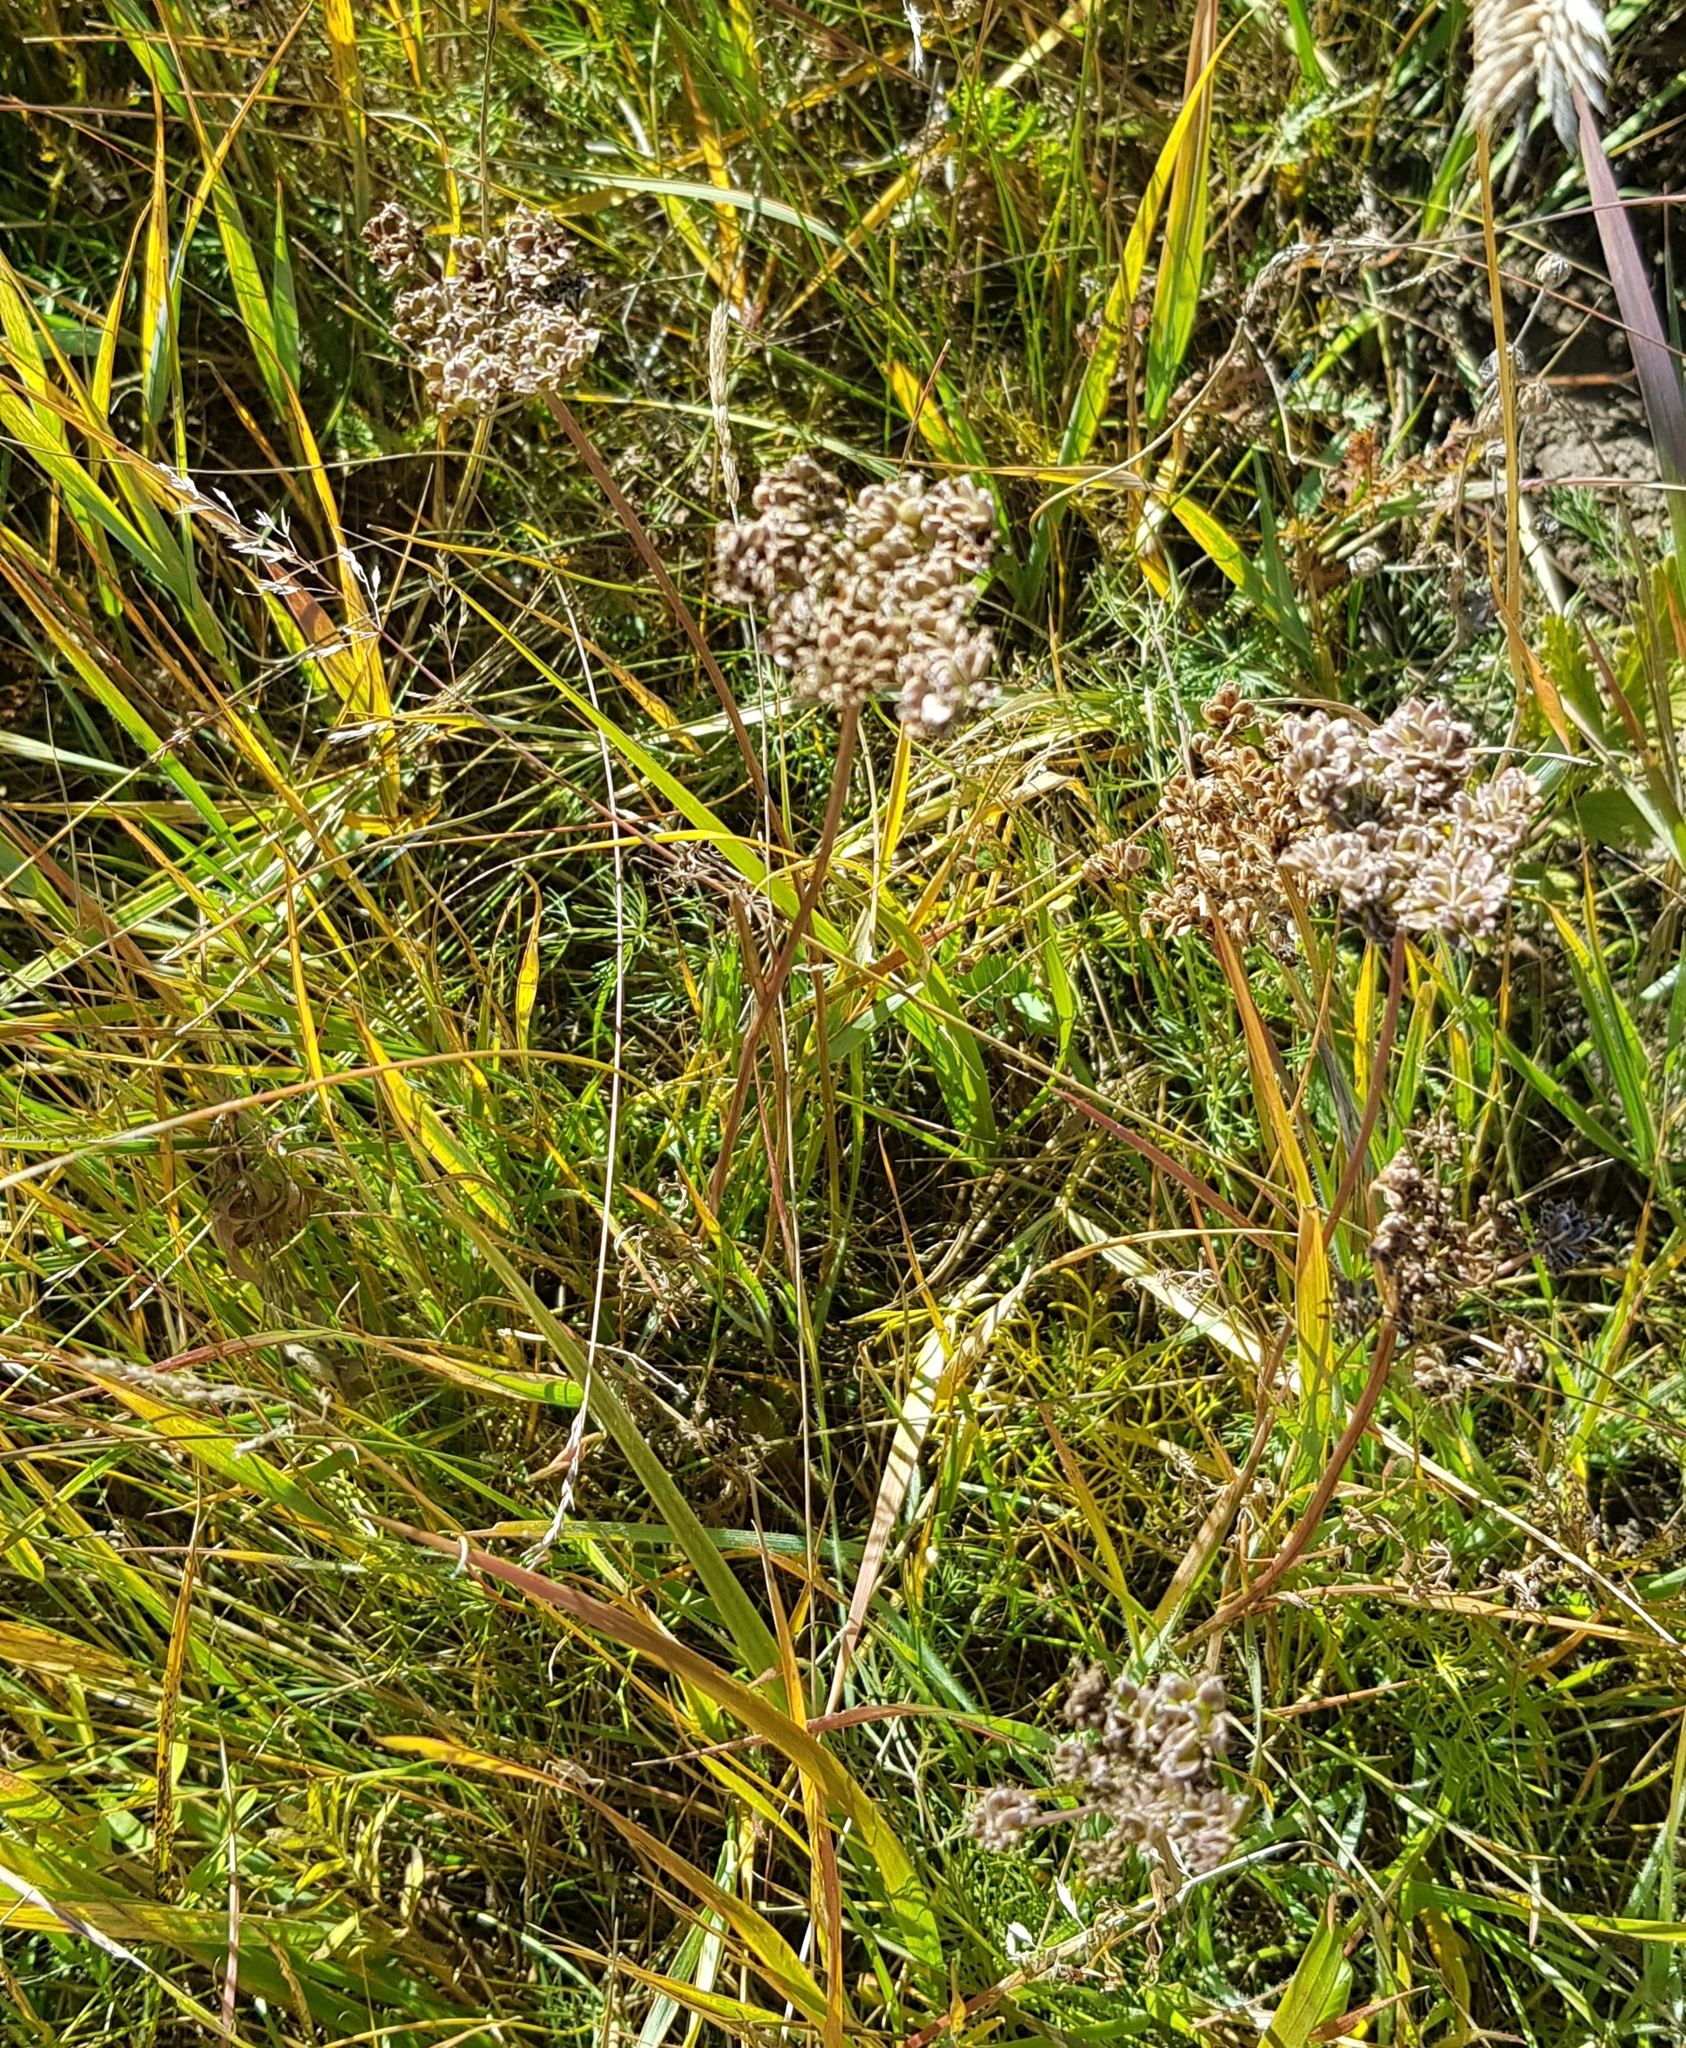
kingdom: Plantae
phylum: Tracheophyta
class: Magnoliopsida
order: Apiales
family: Apiaceae
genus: Kitagawia
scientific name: Kitagawia baicalensis
